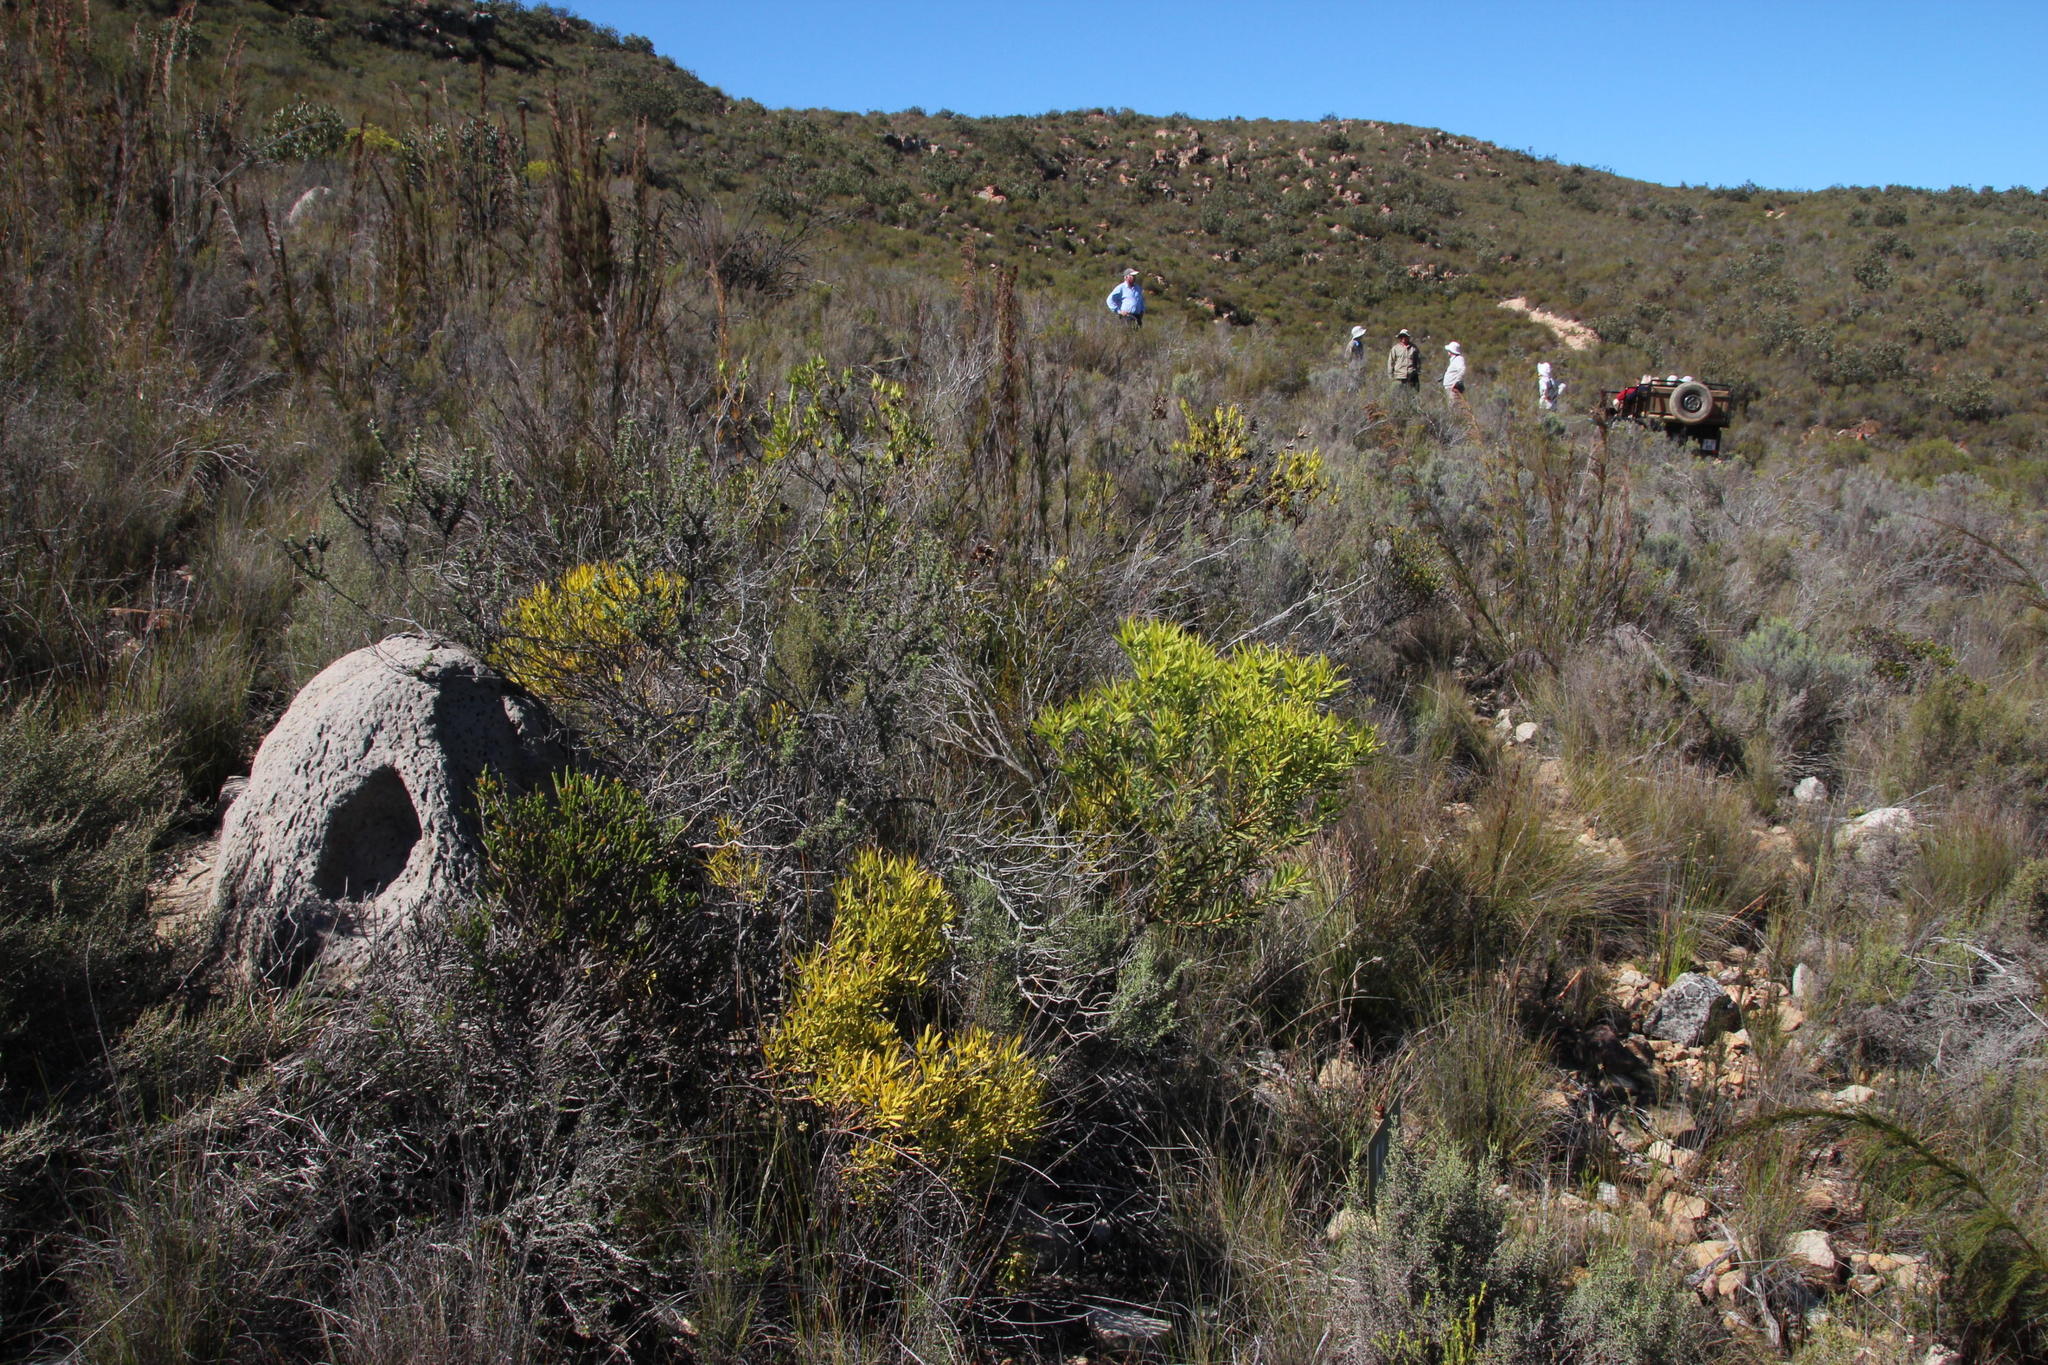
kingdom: Plantae
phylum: Tracheophyta
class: Magnoliopsida
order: Proteales
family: Proteaceae
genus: Leucadendron
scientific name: Leucadendron salignum
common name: Common sunshine conebush
